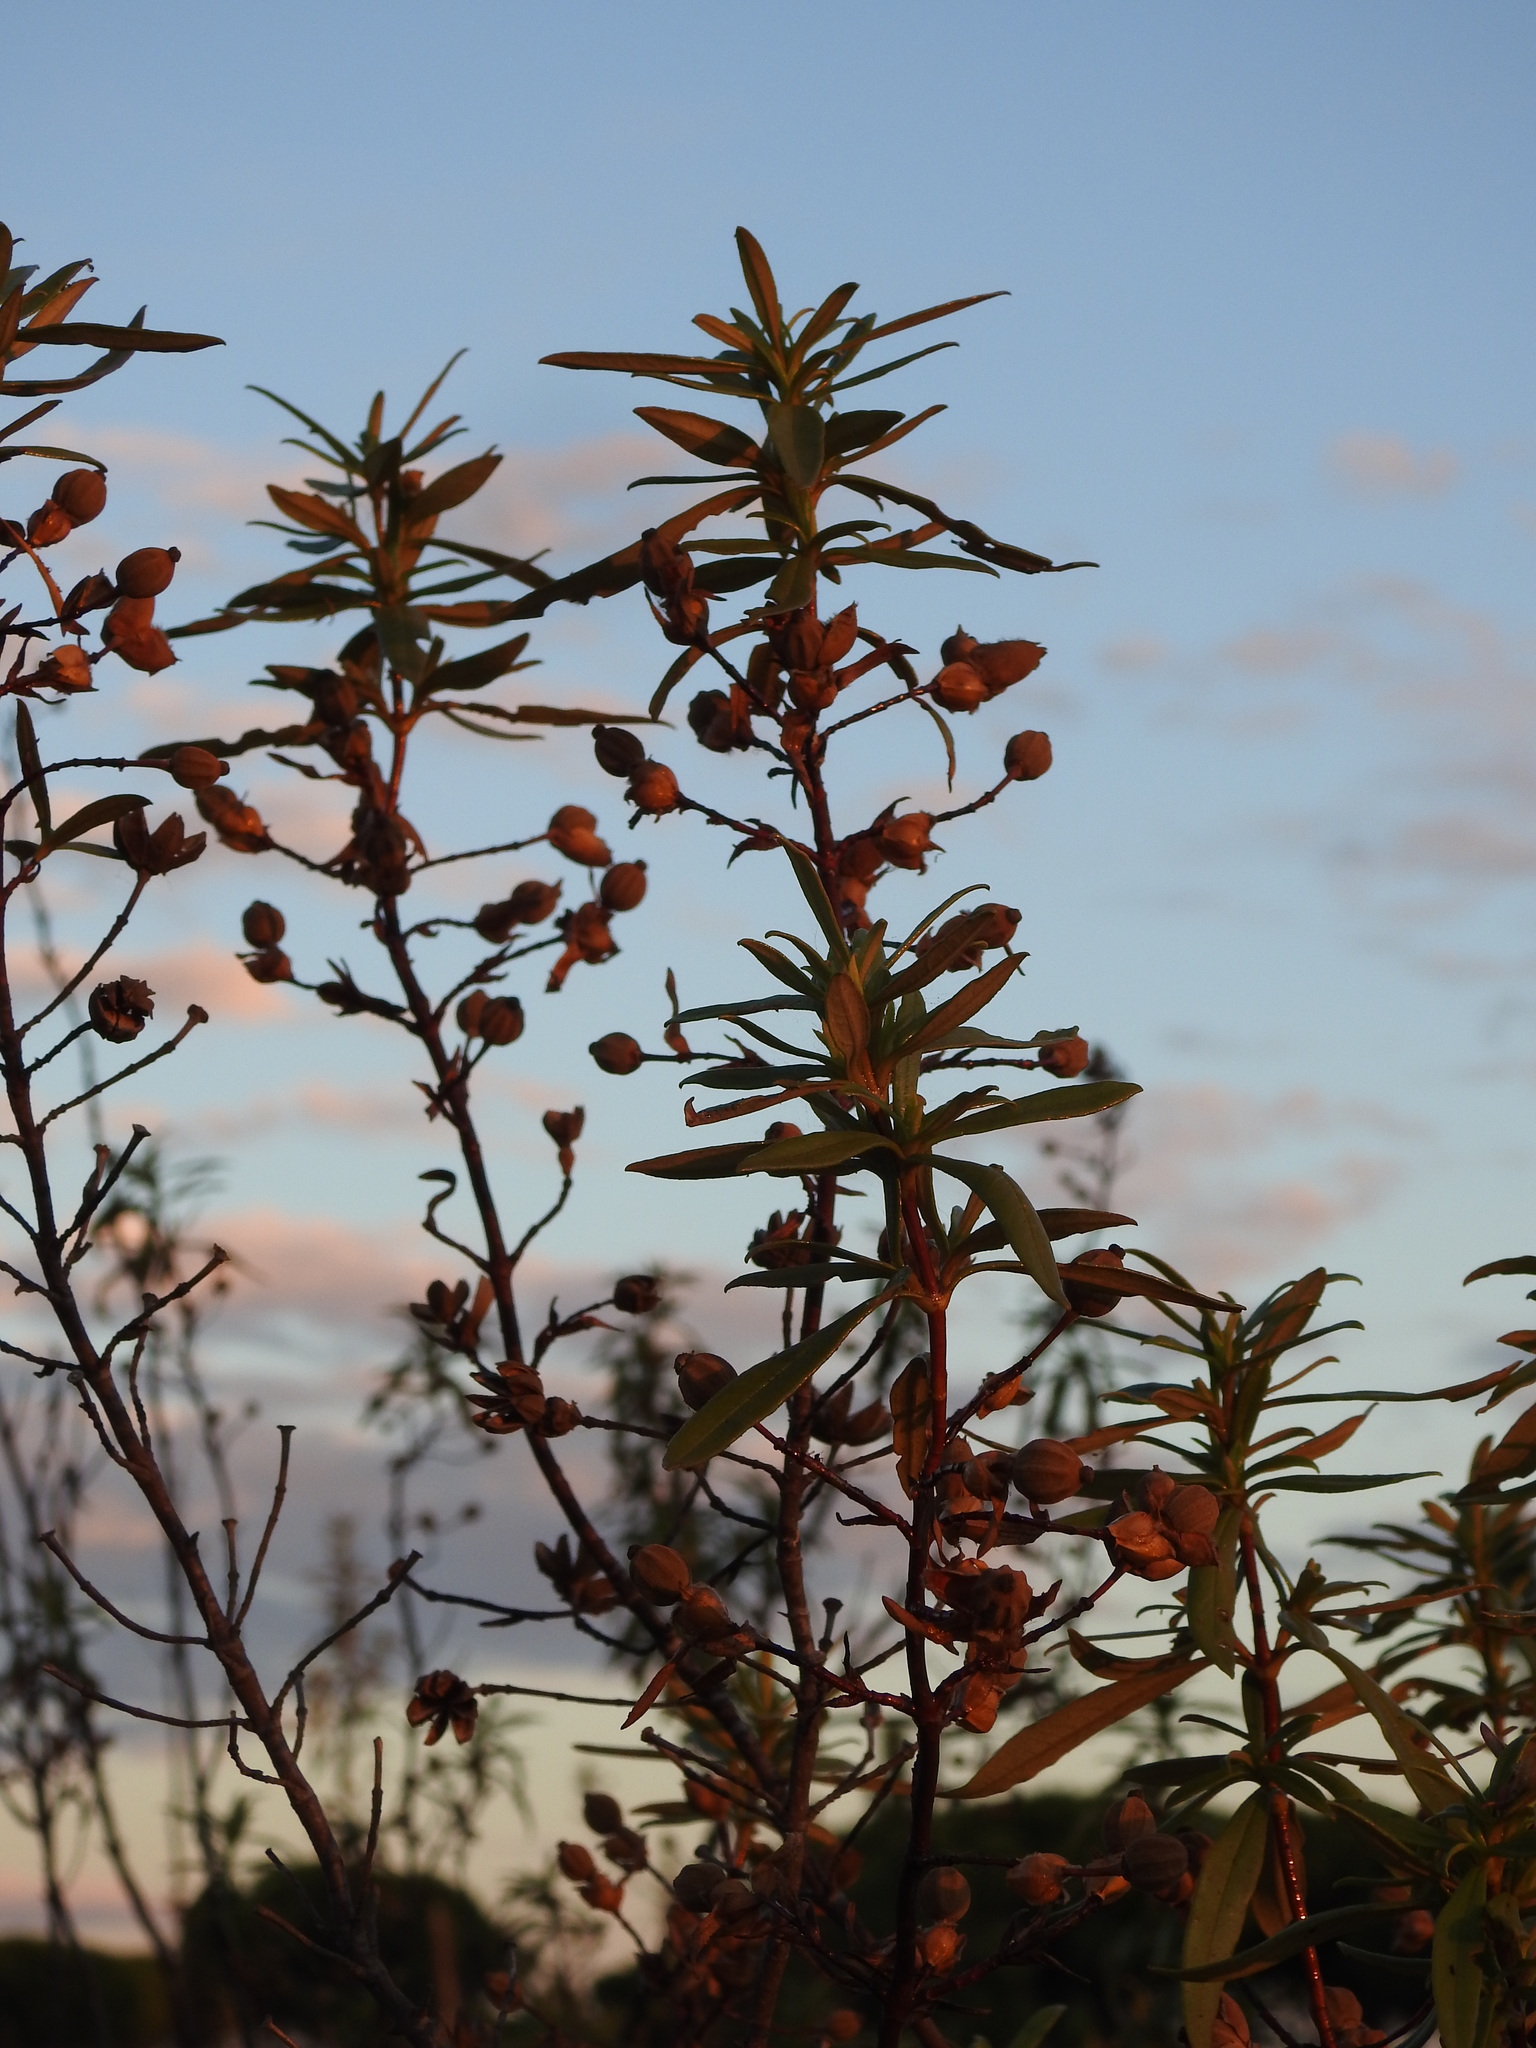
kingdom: Plantae
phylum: Tracheophyta
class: Magnoliopsida
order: Malvales
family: Cistaceae
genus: Cistus
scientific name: Cistus ladanifer
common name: Common gum cistus
